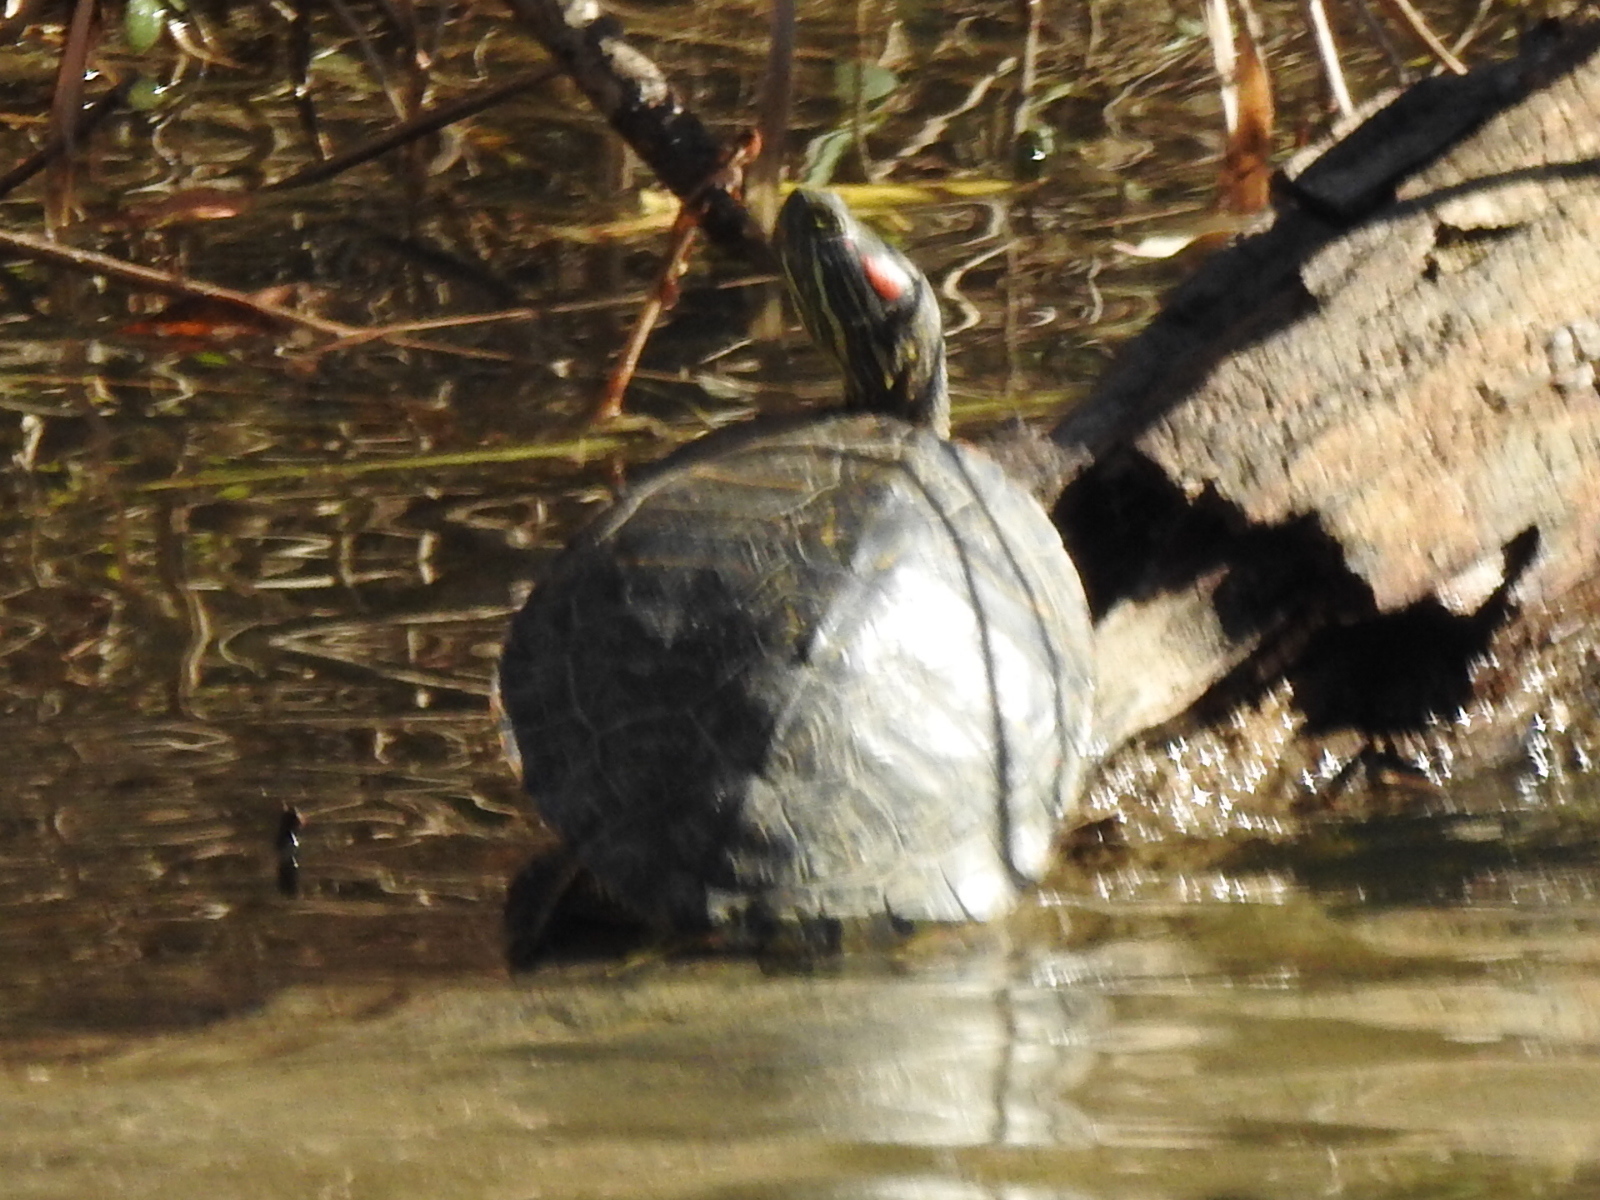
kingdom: Animalia
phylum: Chordata
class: Testudines
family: Emydidae
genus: Trachemys
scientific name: Trachemys scripta
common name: Slider
